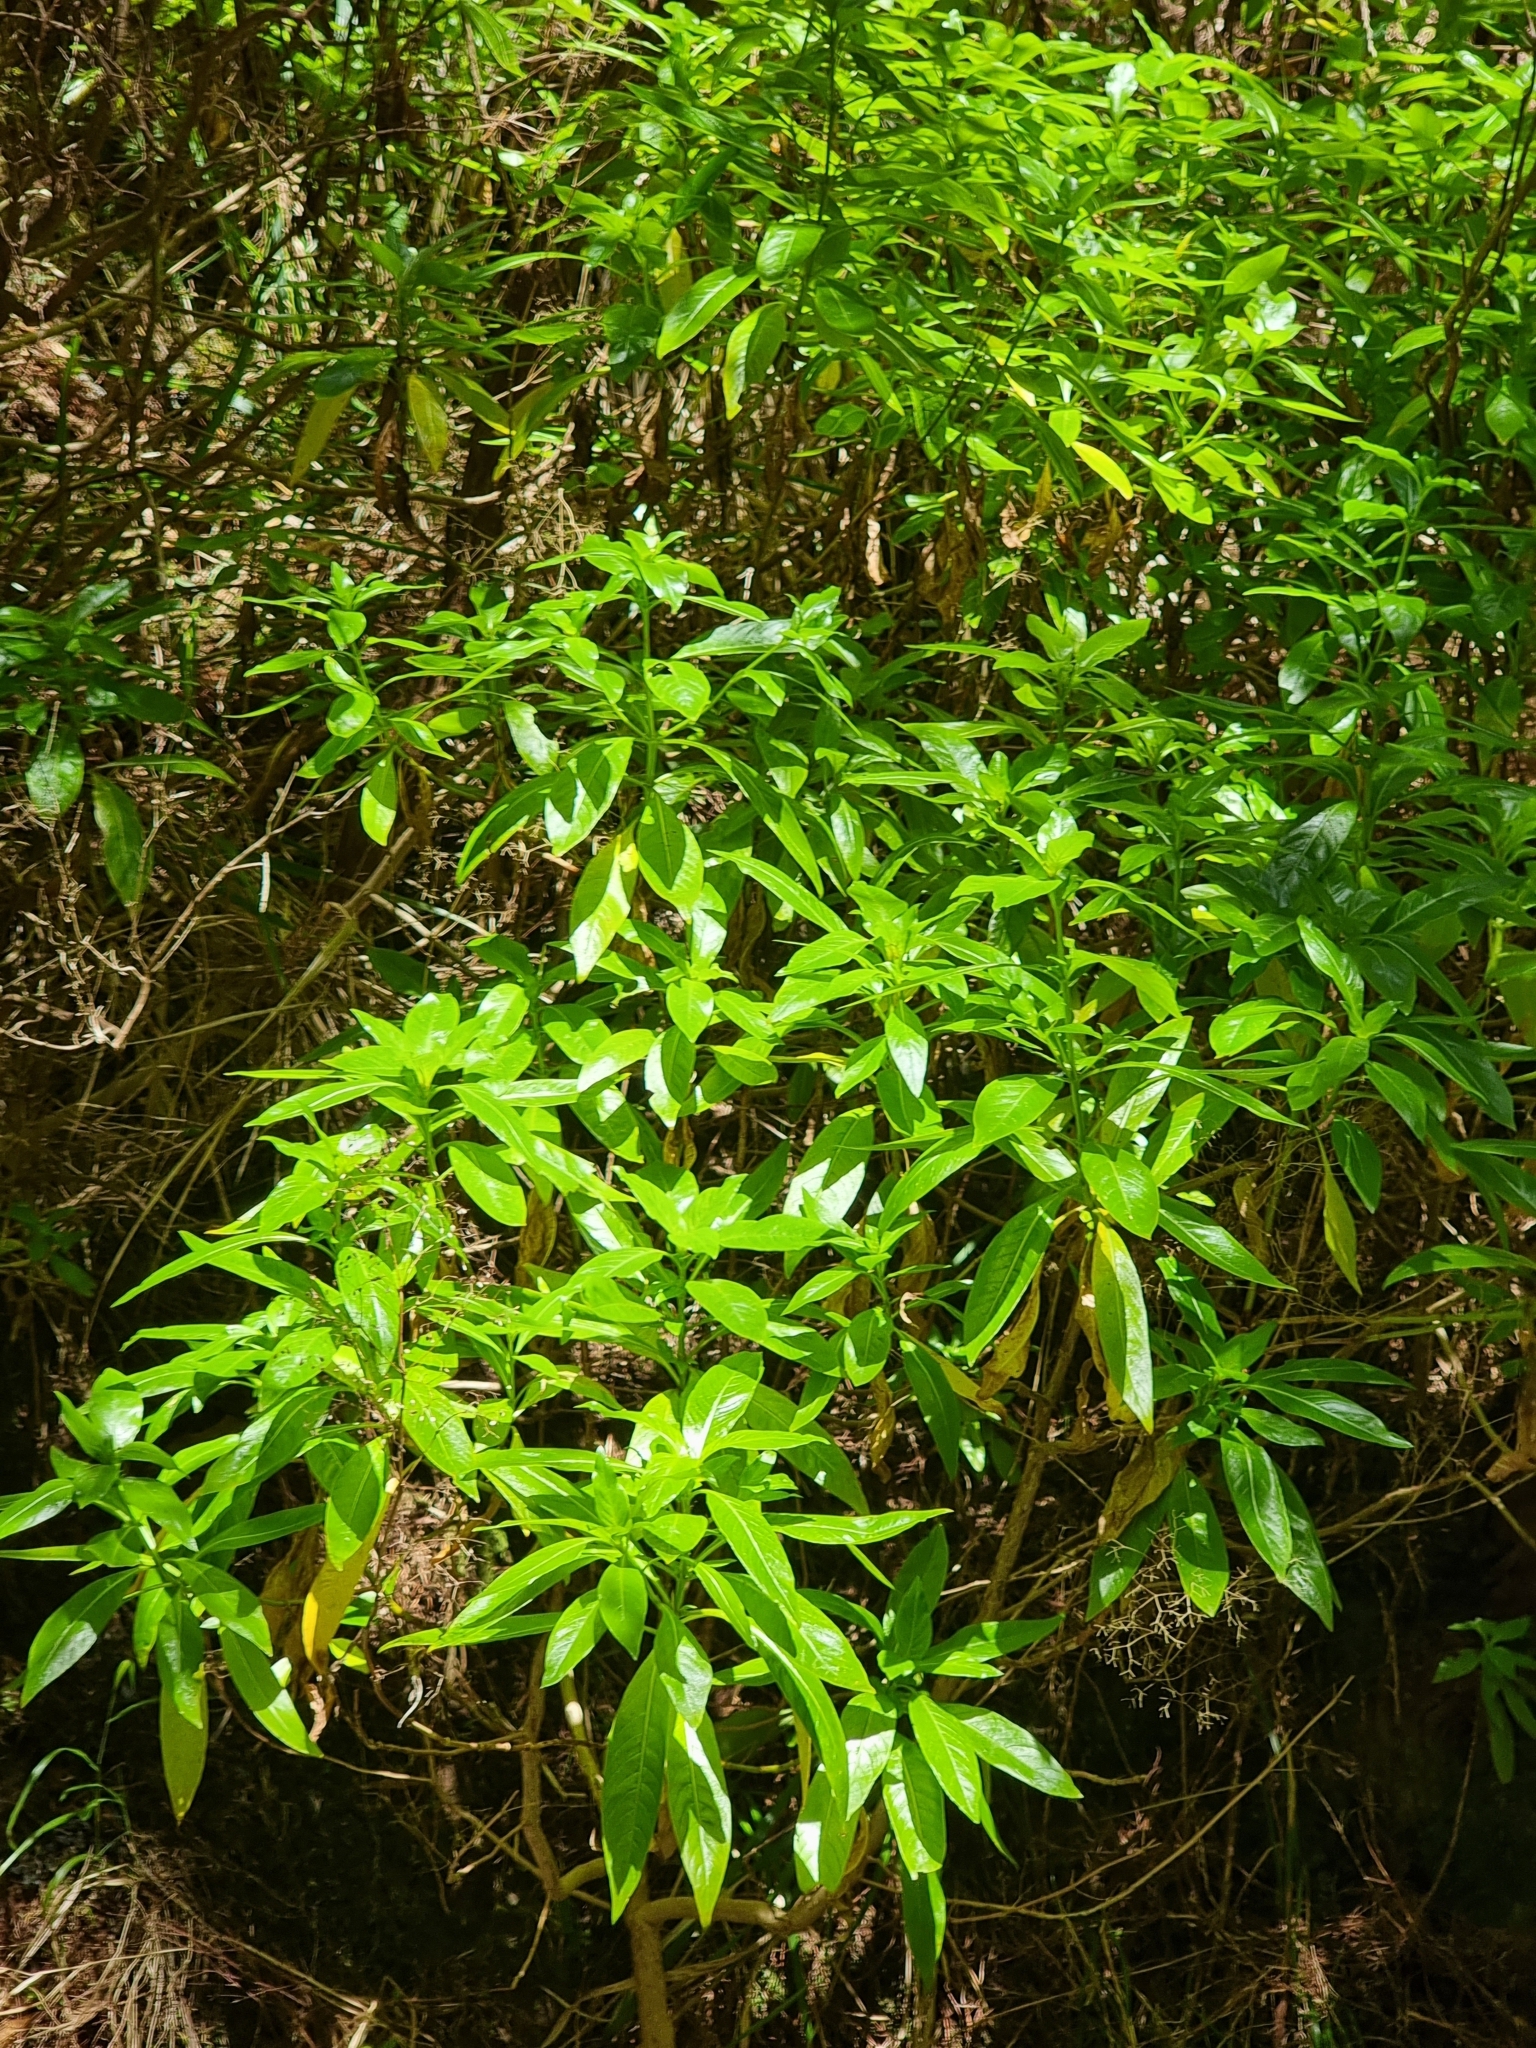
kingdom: Plantae
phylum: Tracheophyta
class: Magnoliopsida
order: Gentianales
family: Rubiaceae
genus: Phyllis
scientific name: Phyllis nobla
